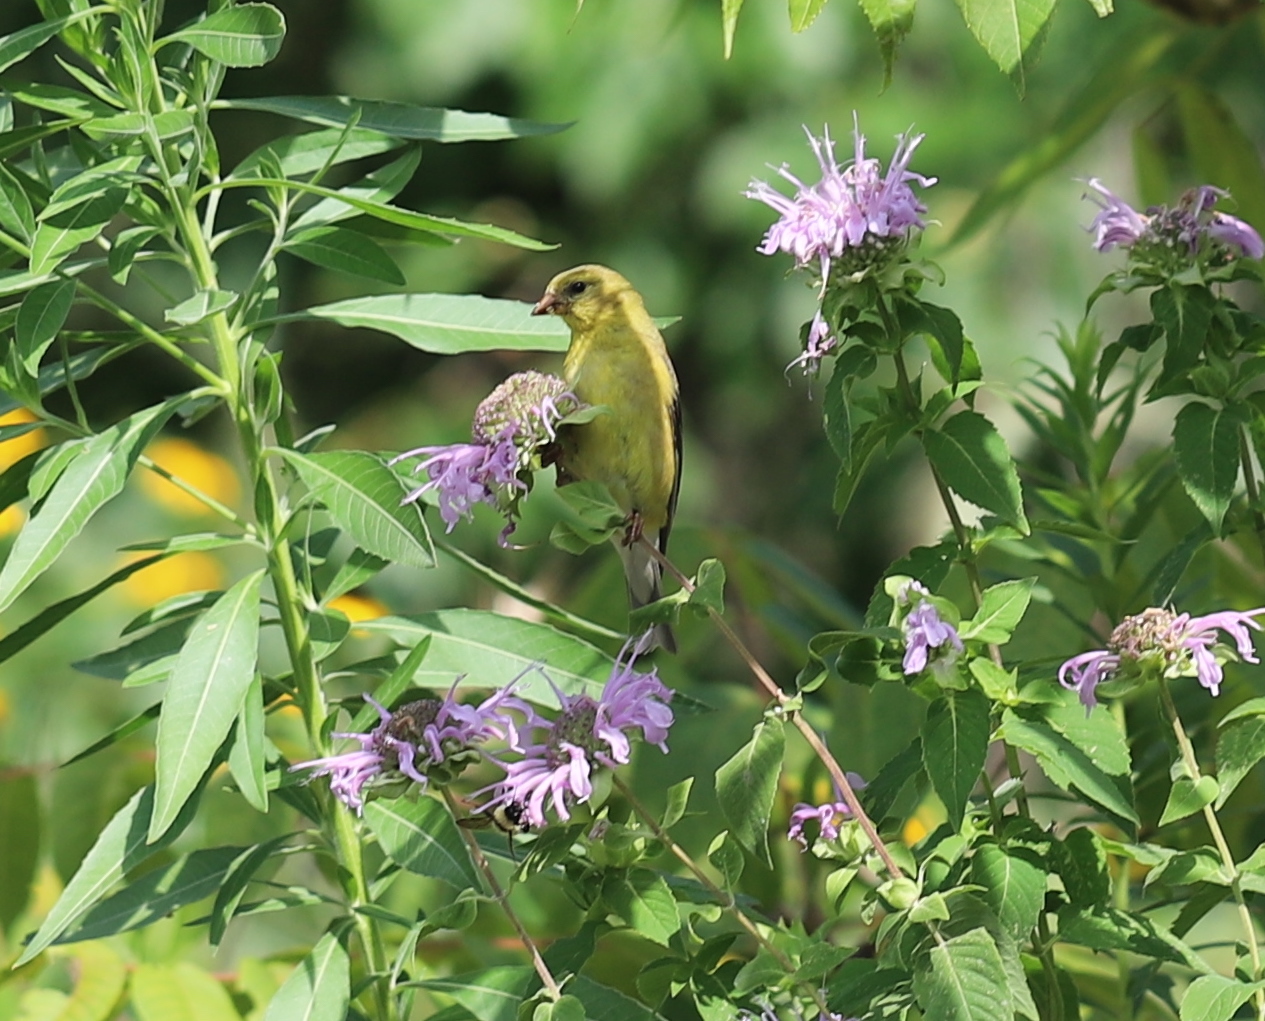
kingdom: Animalia
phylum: Chordata
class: Aves
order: Passeriformes
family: Fringillidae
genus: Spinus
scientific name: Spinus tristis
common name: American goldfinch
